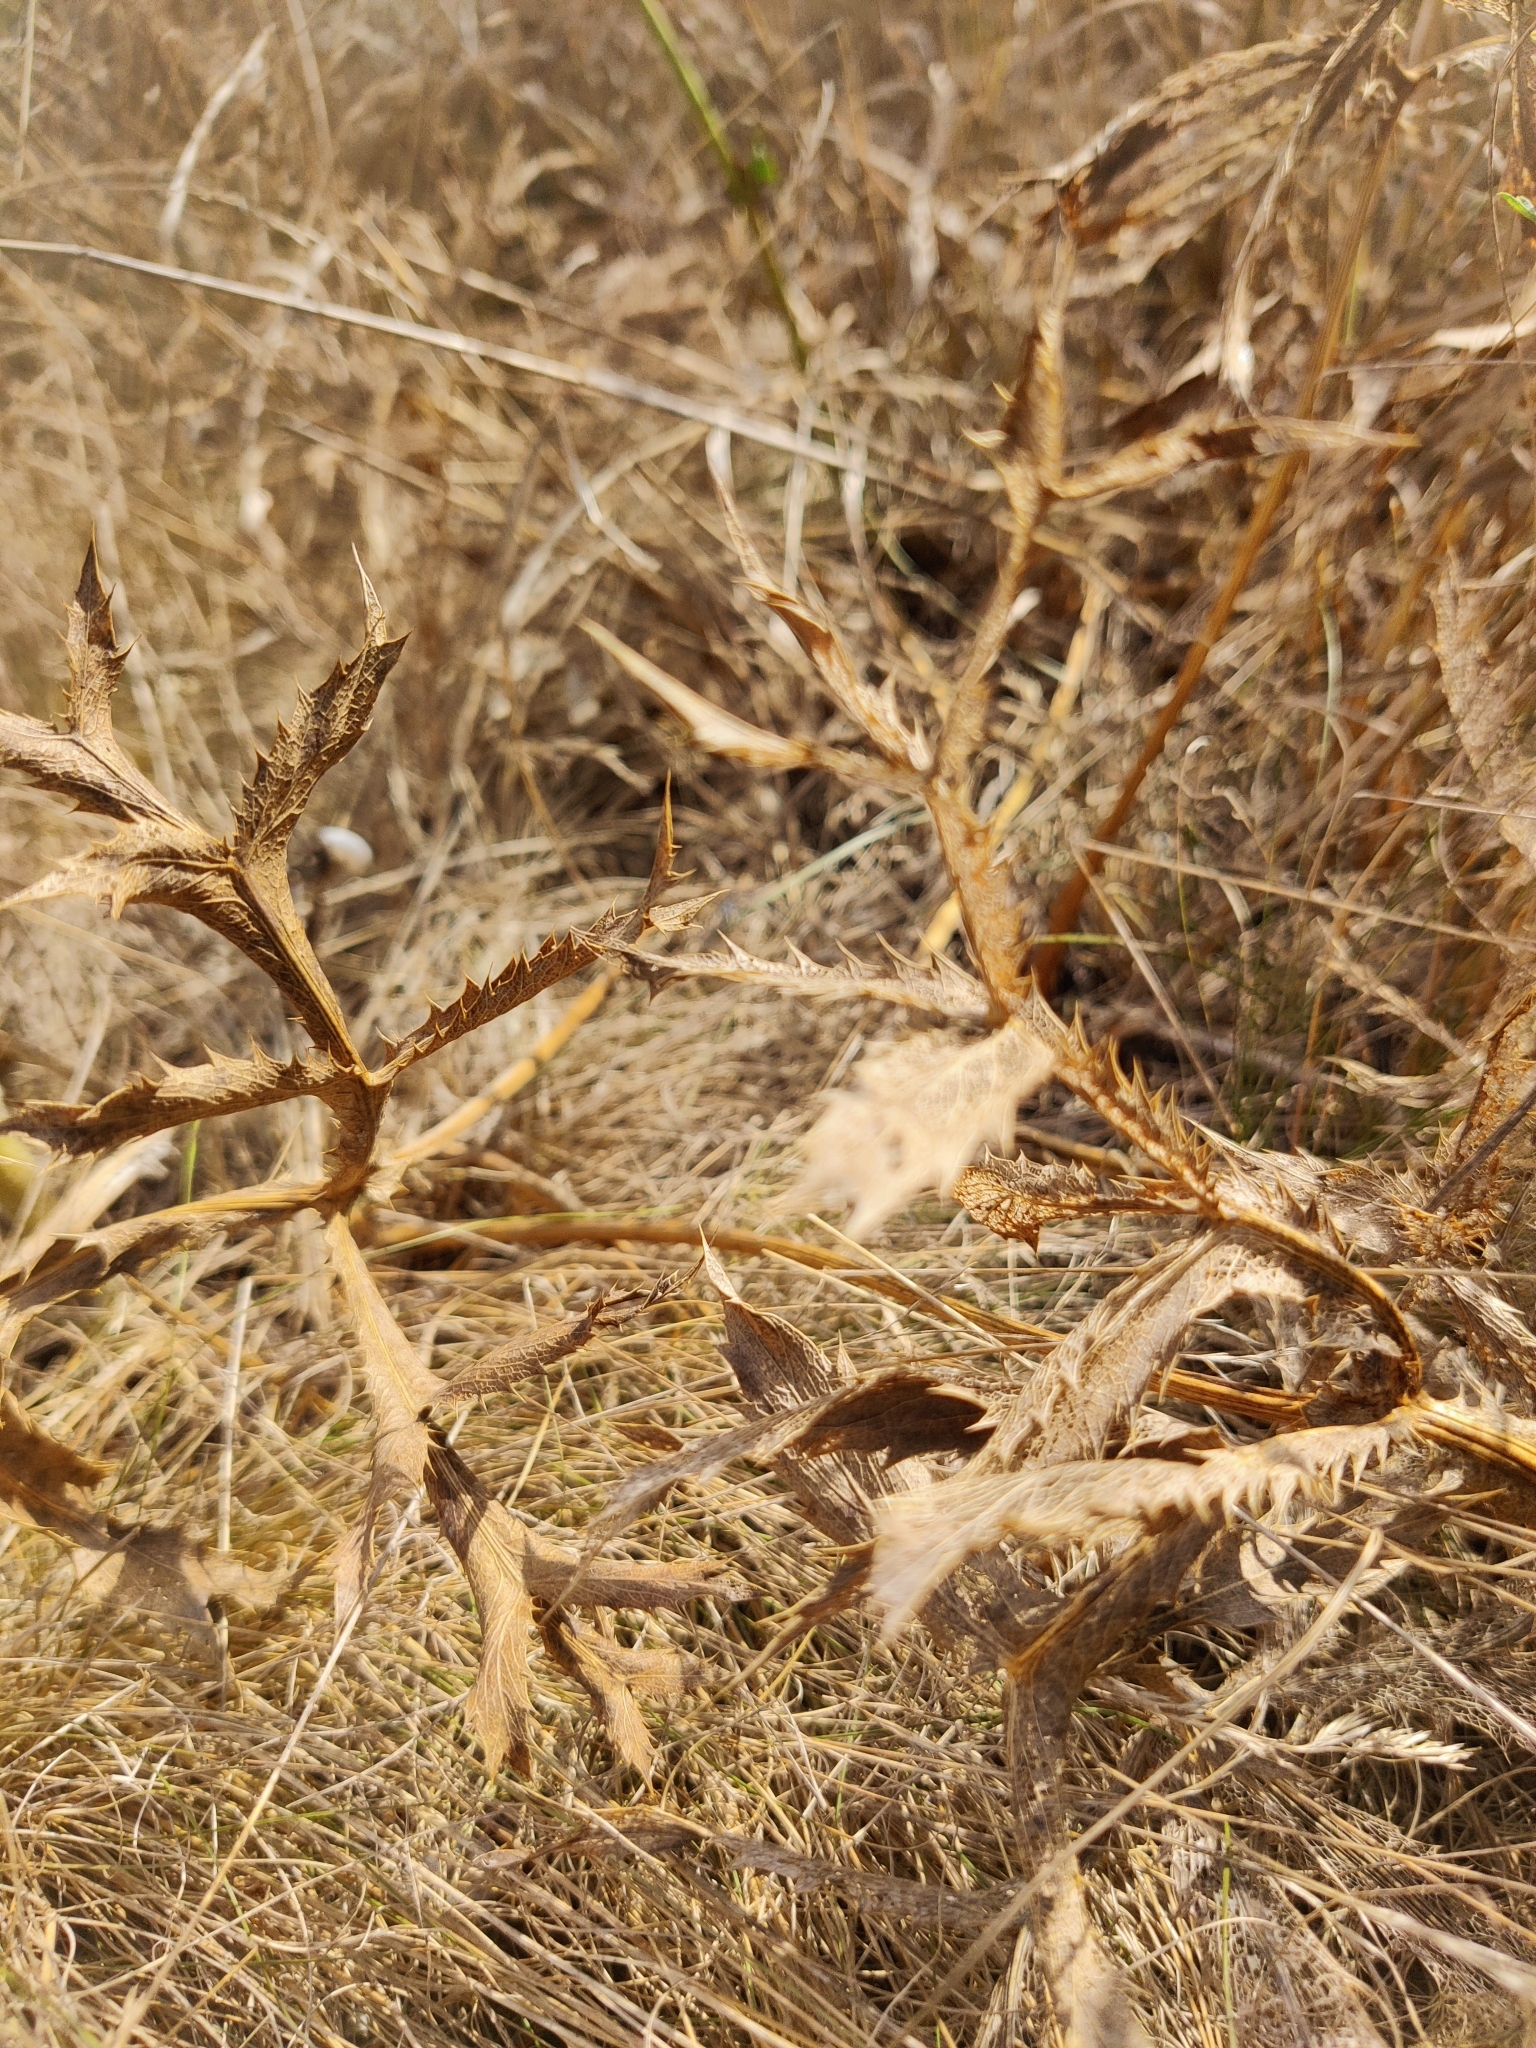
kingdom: Plantae
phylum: Tracheophyta
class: Magnoliopsida
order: Apiales
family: Apiaceae
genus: Eryngium
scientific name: Eryngium campestre
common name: Field eryngo
